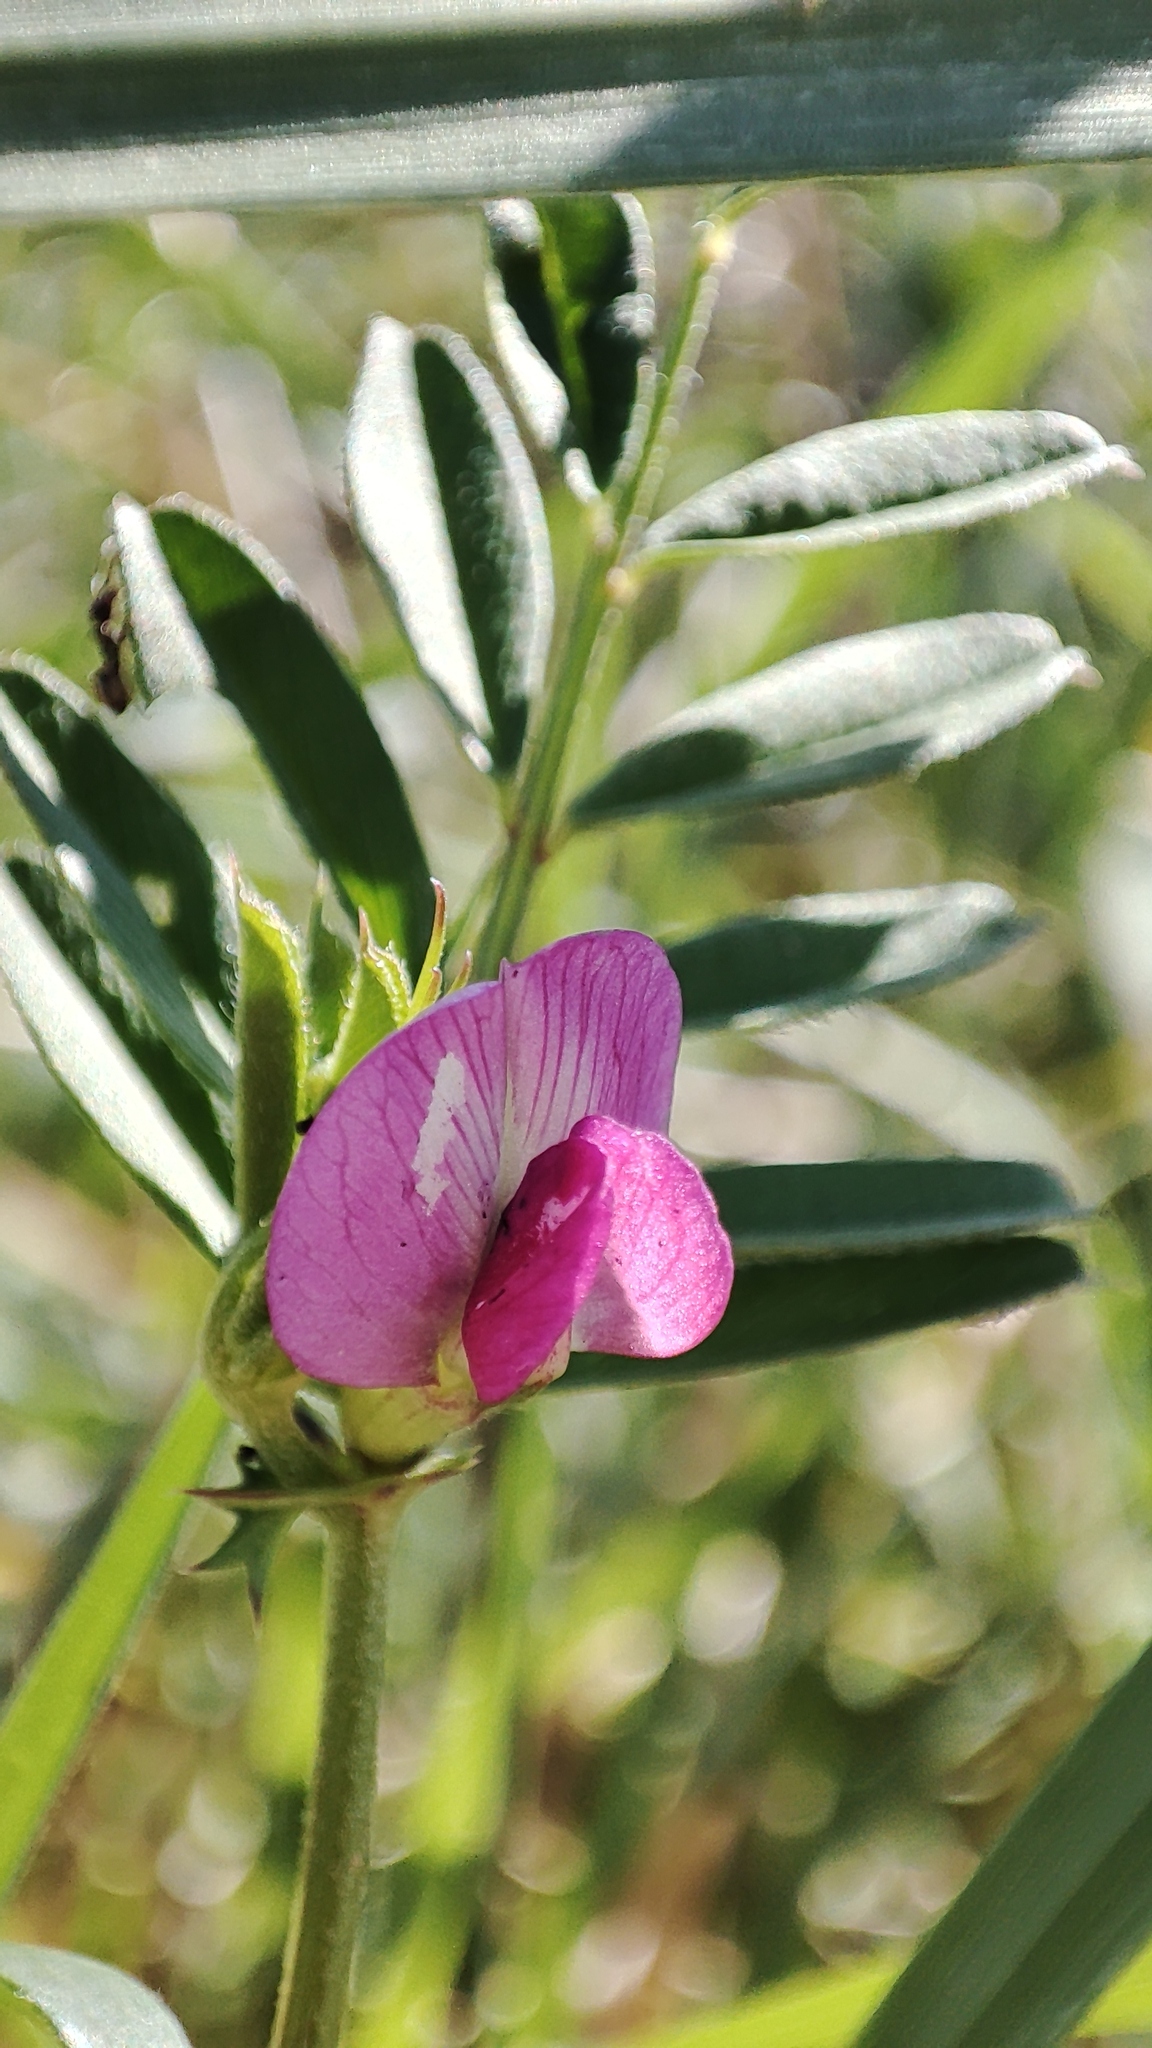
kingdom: Plantae
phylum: Tracheophyta
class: Magnoliopsida
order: Fabales
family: Fabaceae
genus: Vicia
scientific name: Vicia sativa
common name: Garden vetch
